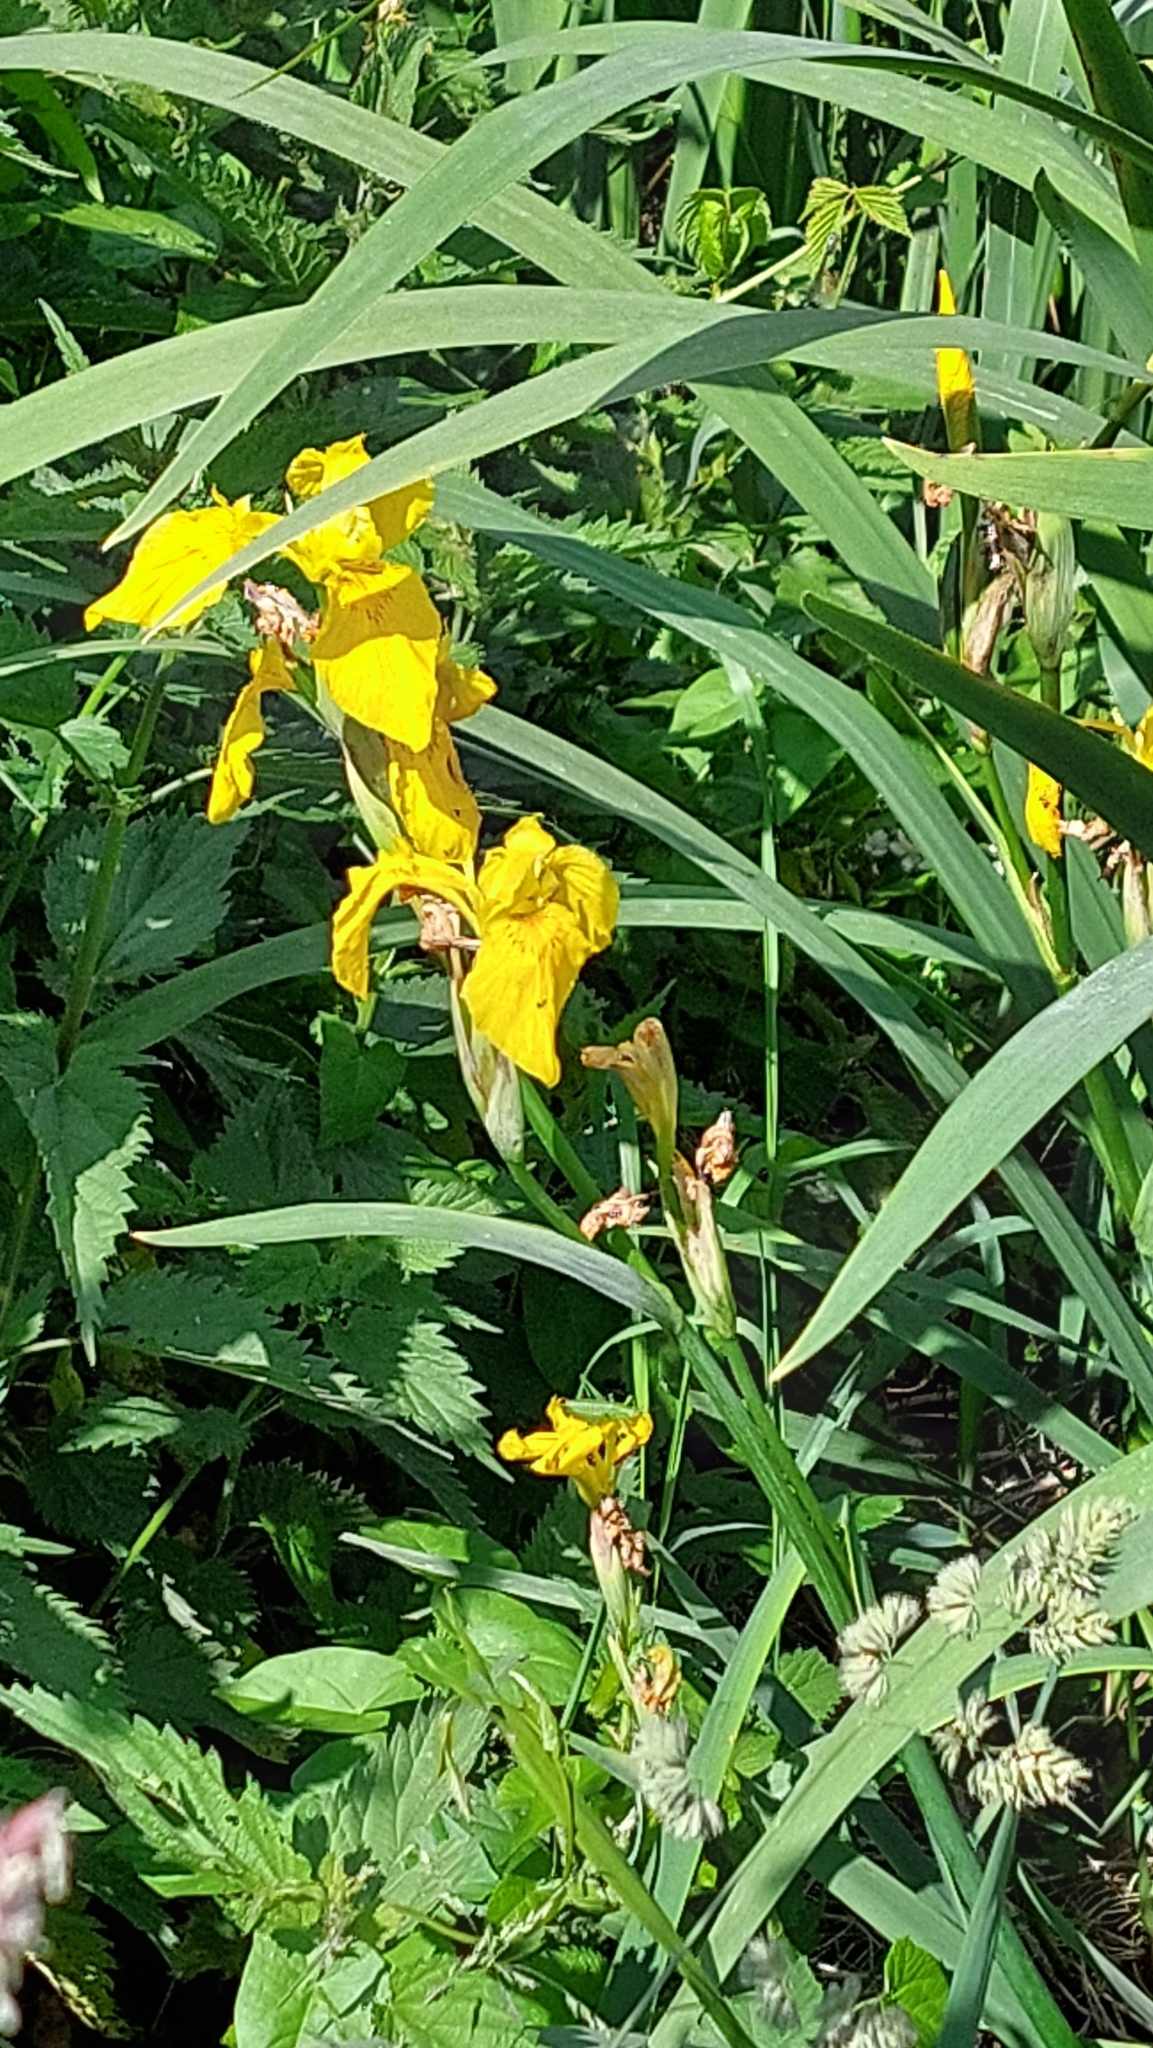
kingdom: Plantae
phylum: Tracheophyta
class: Liliopsida
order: Asparagales
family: Iridaceae
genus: Iris
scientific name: Iris pseudacorus
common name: Yellow flag
